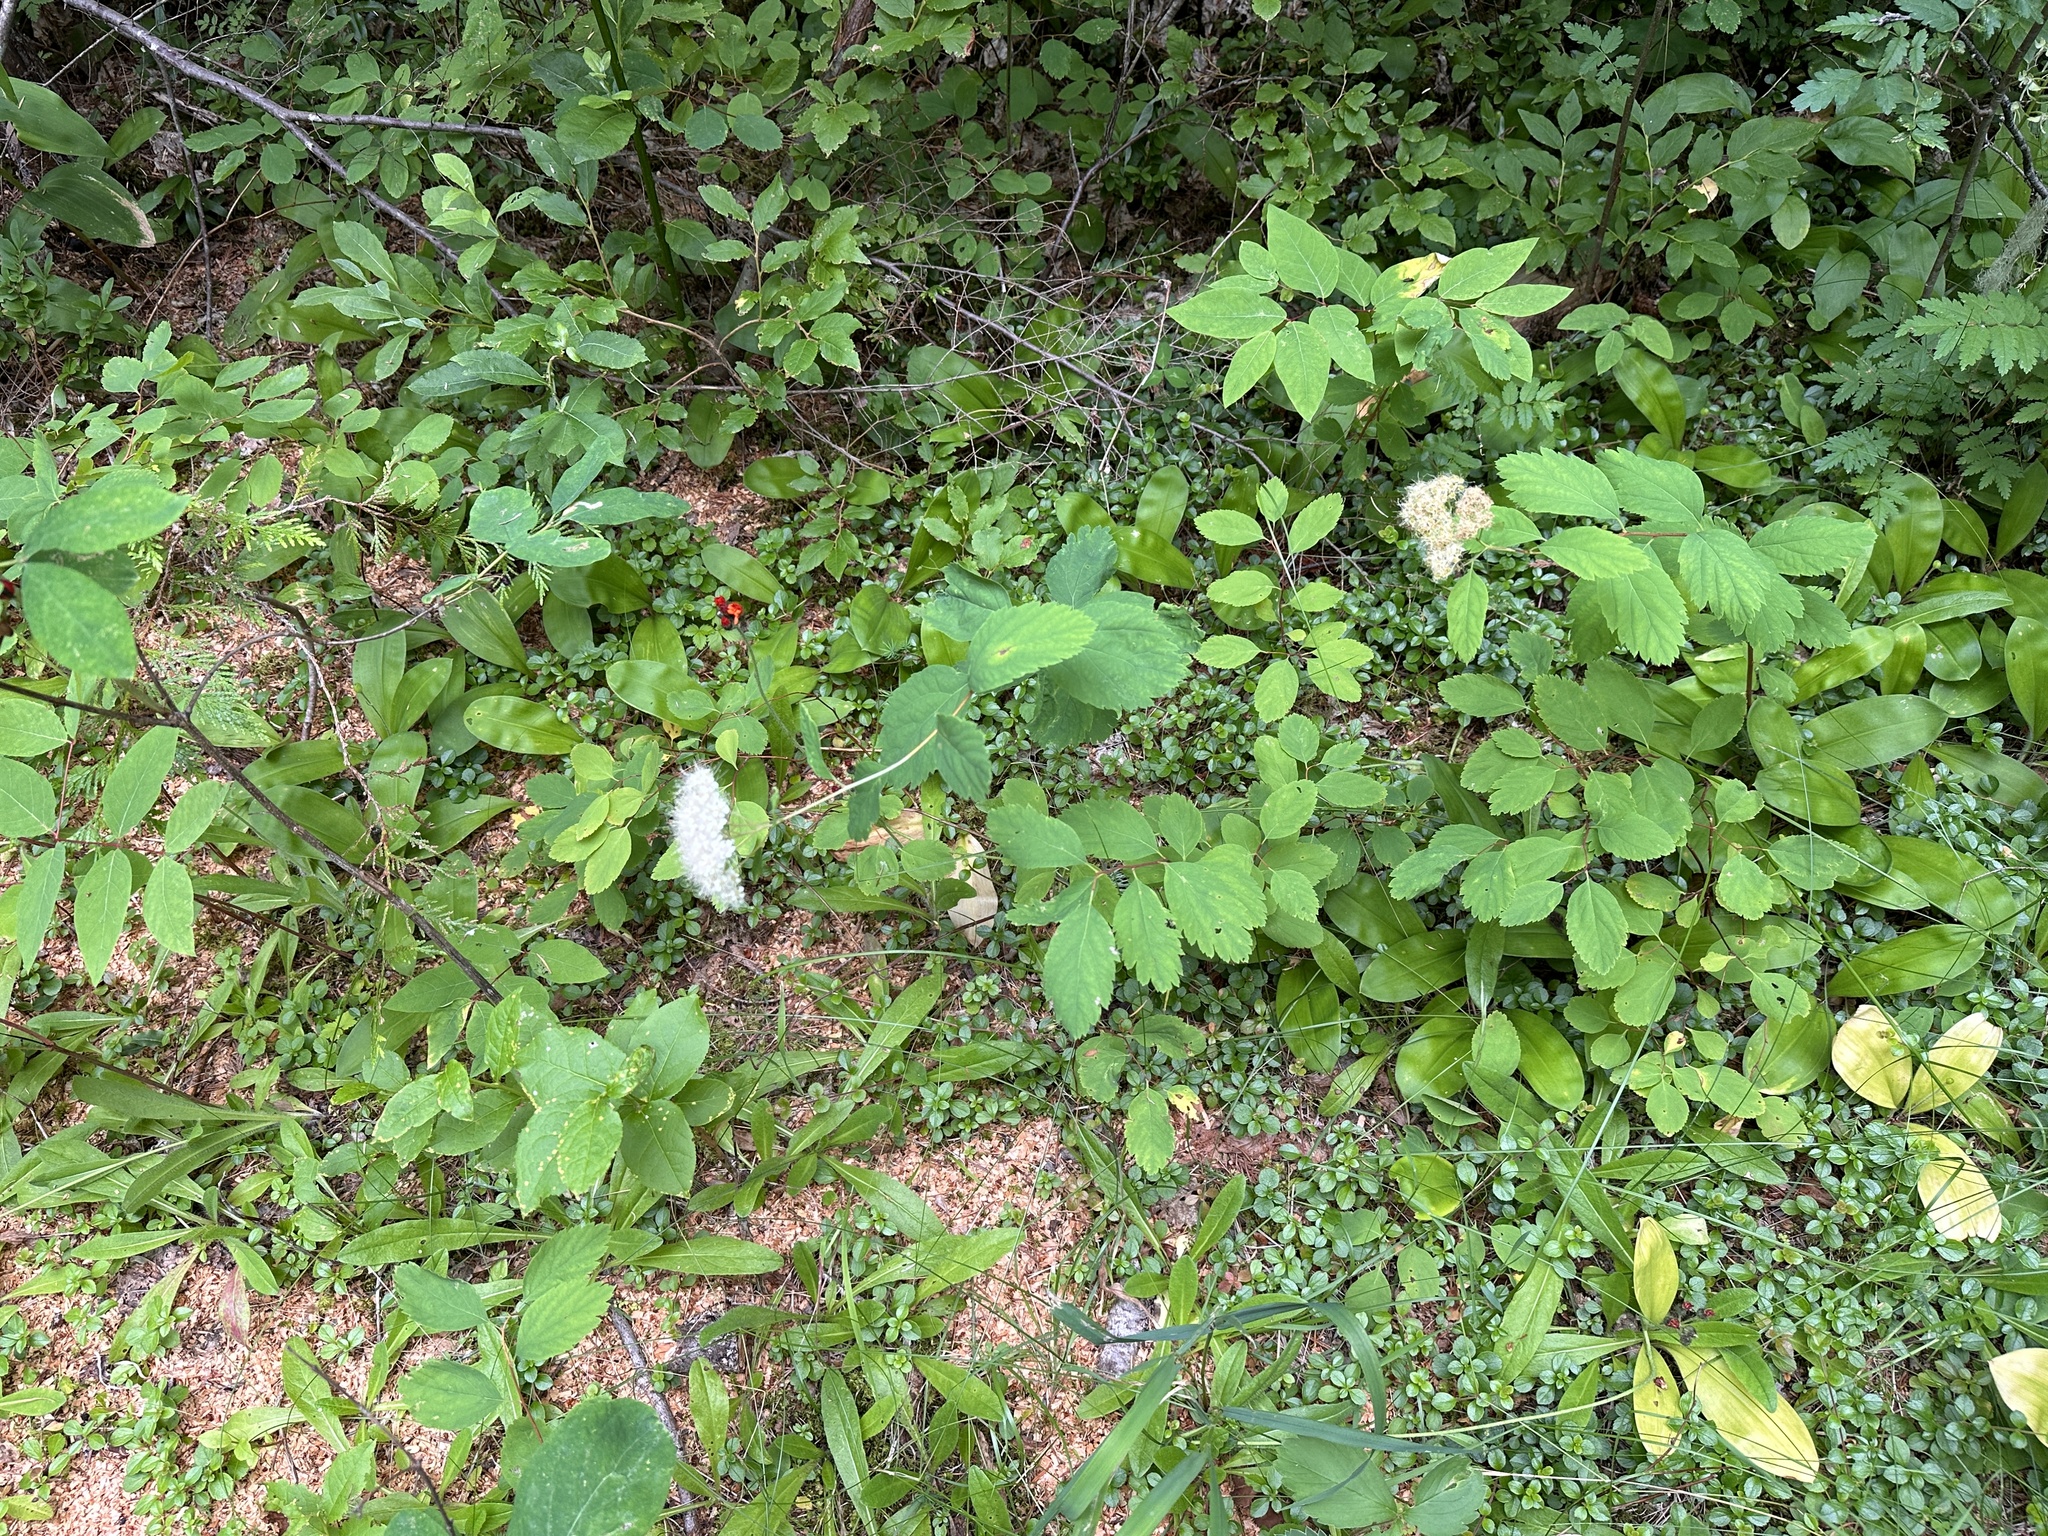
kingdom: Plantae
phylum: Tracheophyta
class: Magnoliopsida
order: Rosales
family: Rosaceae
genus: Spiraea
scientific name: Spiraea lucida
